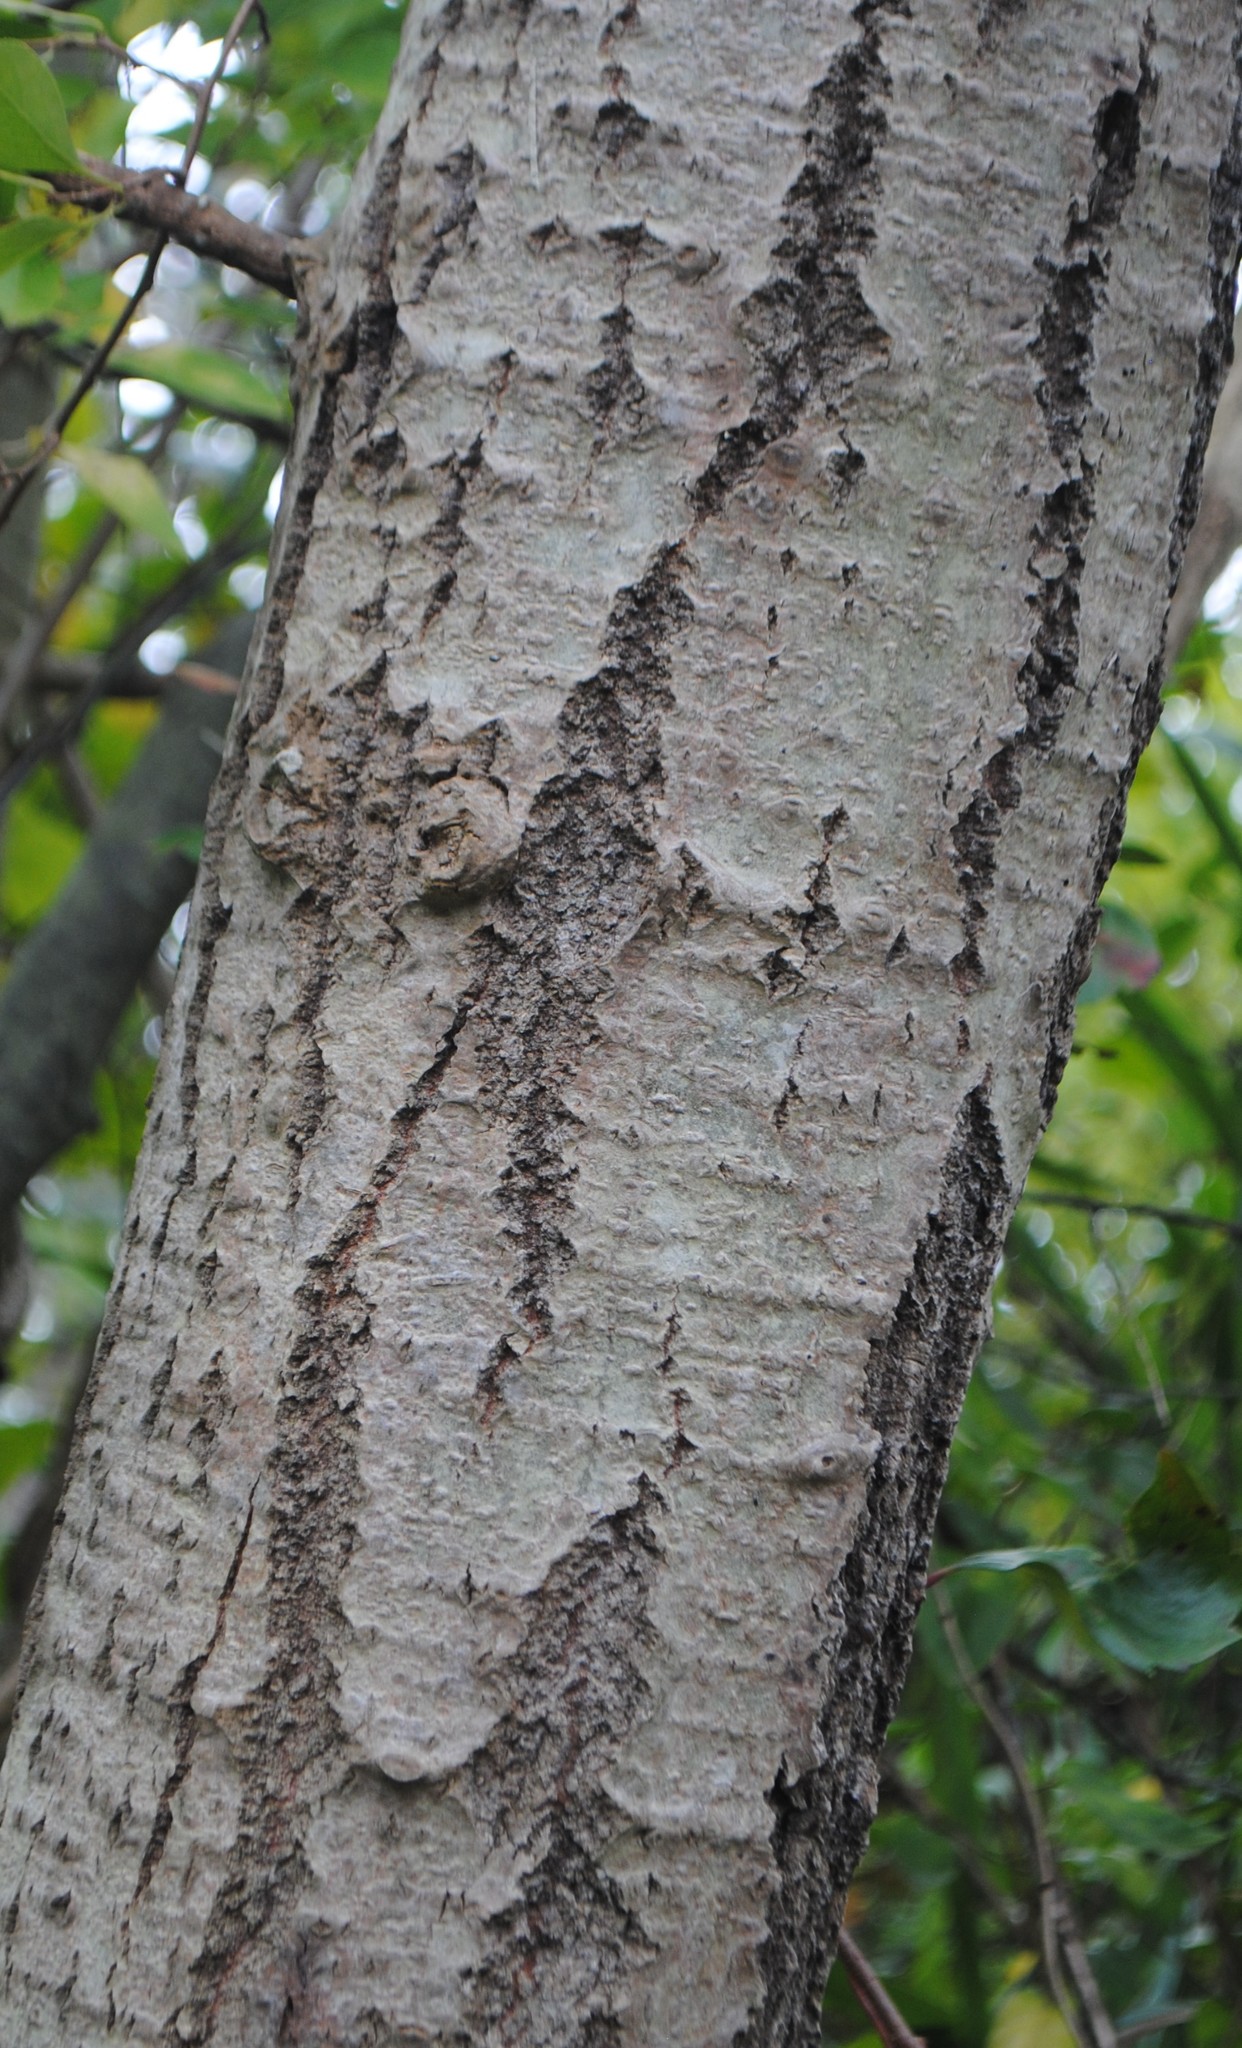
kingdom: Plantae
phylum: Tracheophyta
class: Magnoliopsida
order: Malpighiales
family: Salicaceae
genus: Populus
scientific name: Populus tremuloides
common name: Quaking aspen
